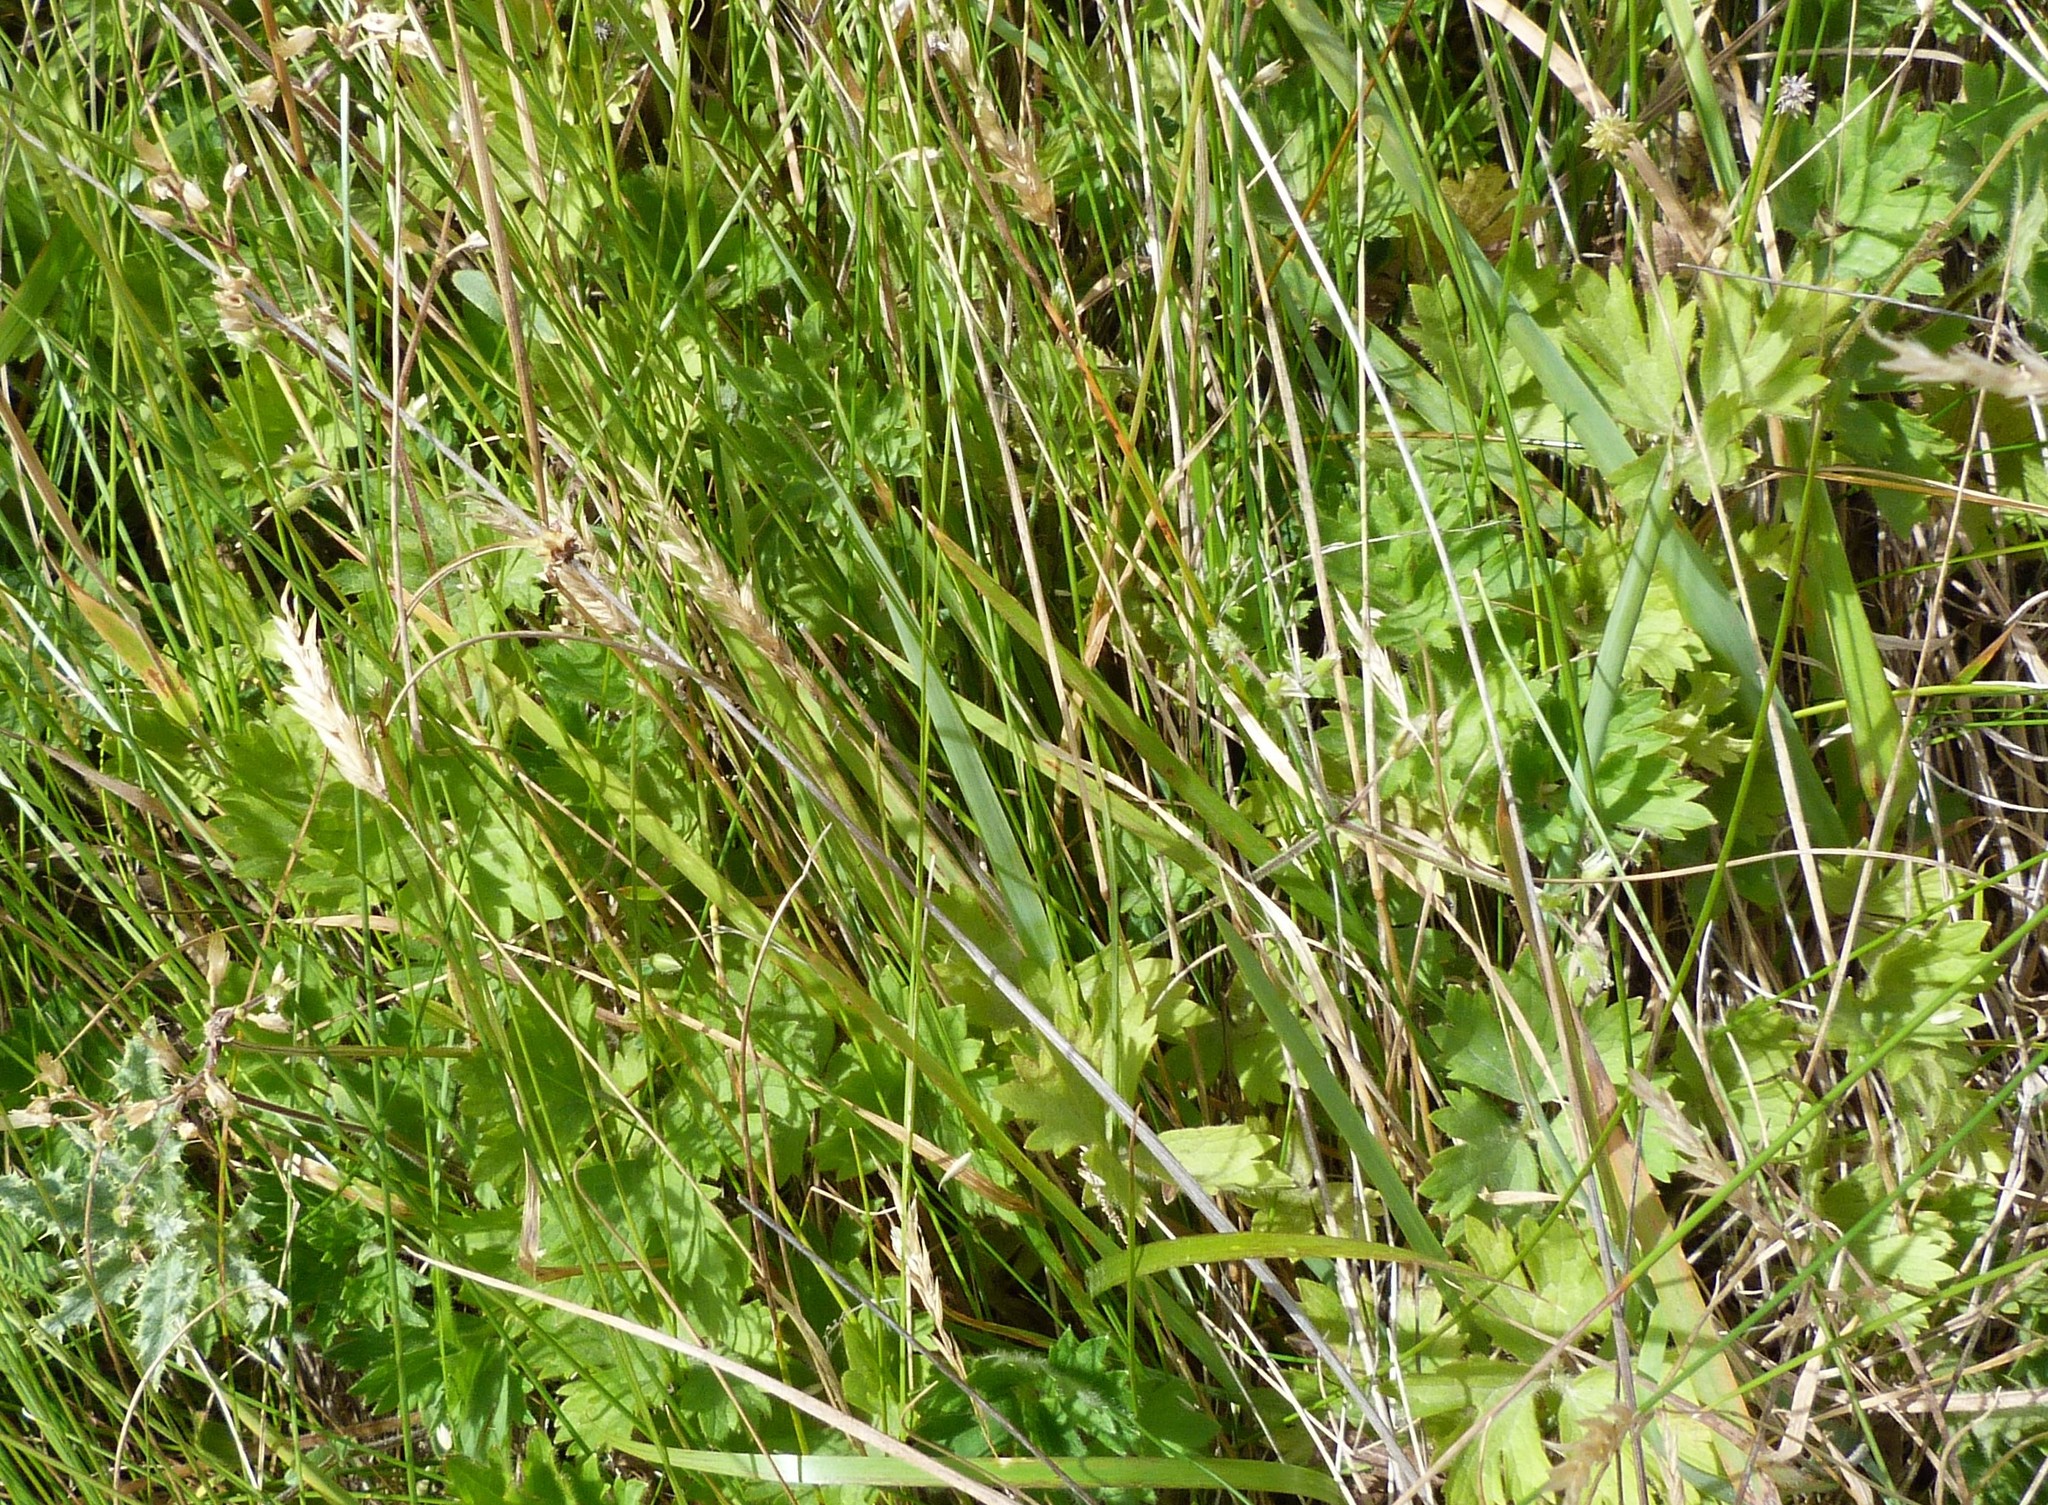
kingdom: Plantae
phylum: Tracheophyta
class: Magnoliopsida
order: Ranunculales
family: Ranunculaceae
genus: Ranunculus
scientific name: Ranunculus repens
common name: Creeping buttercup
